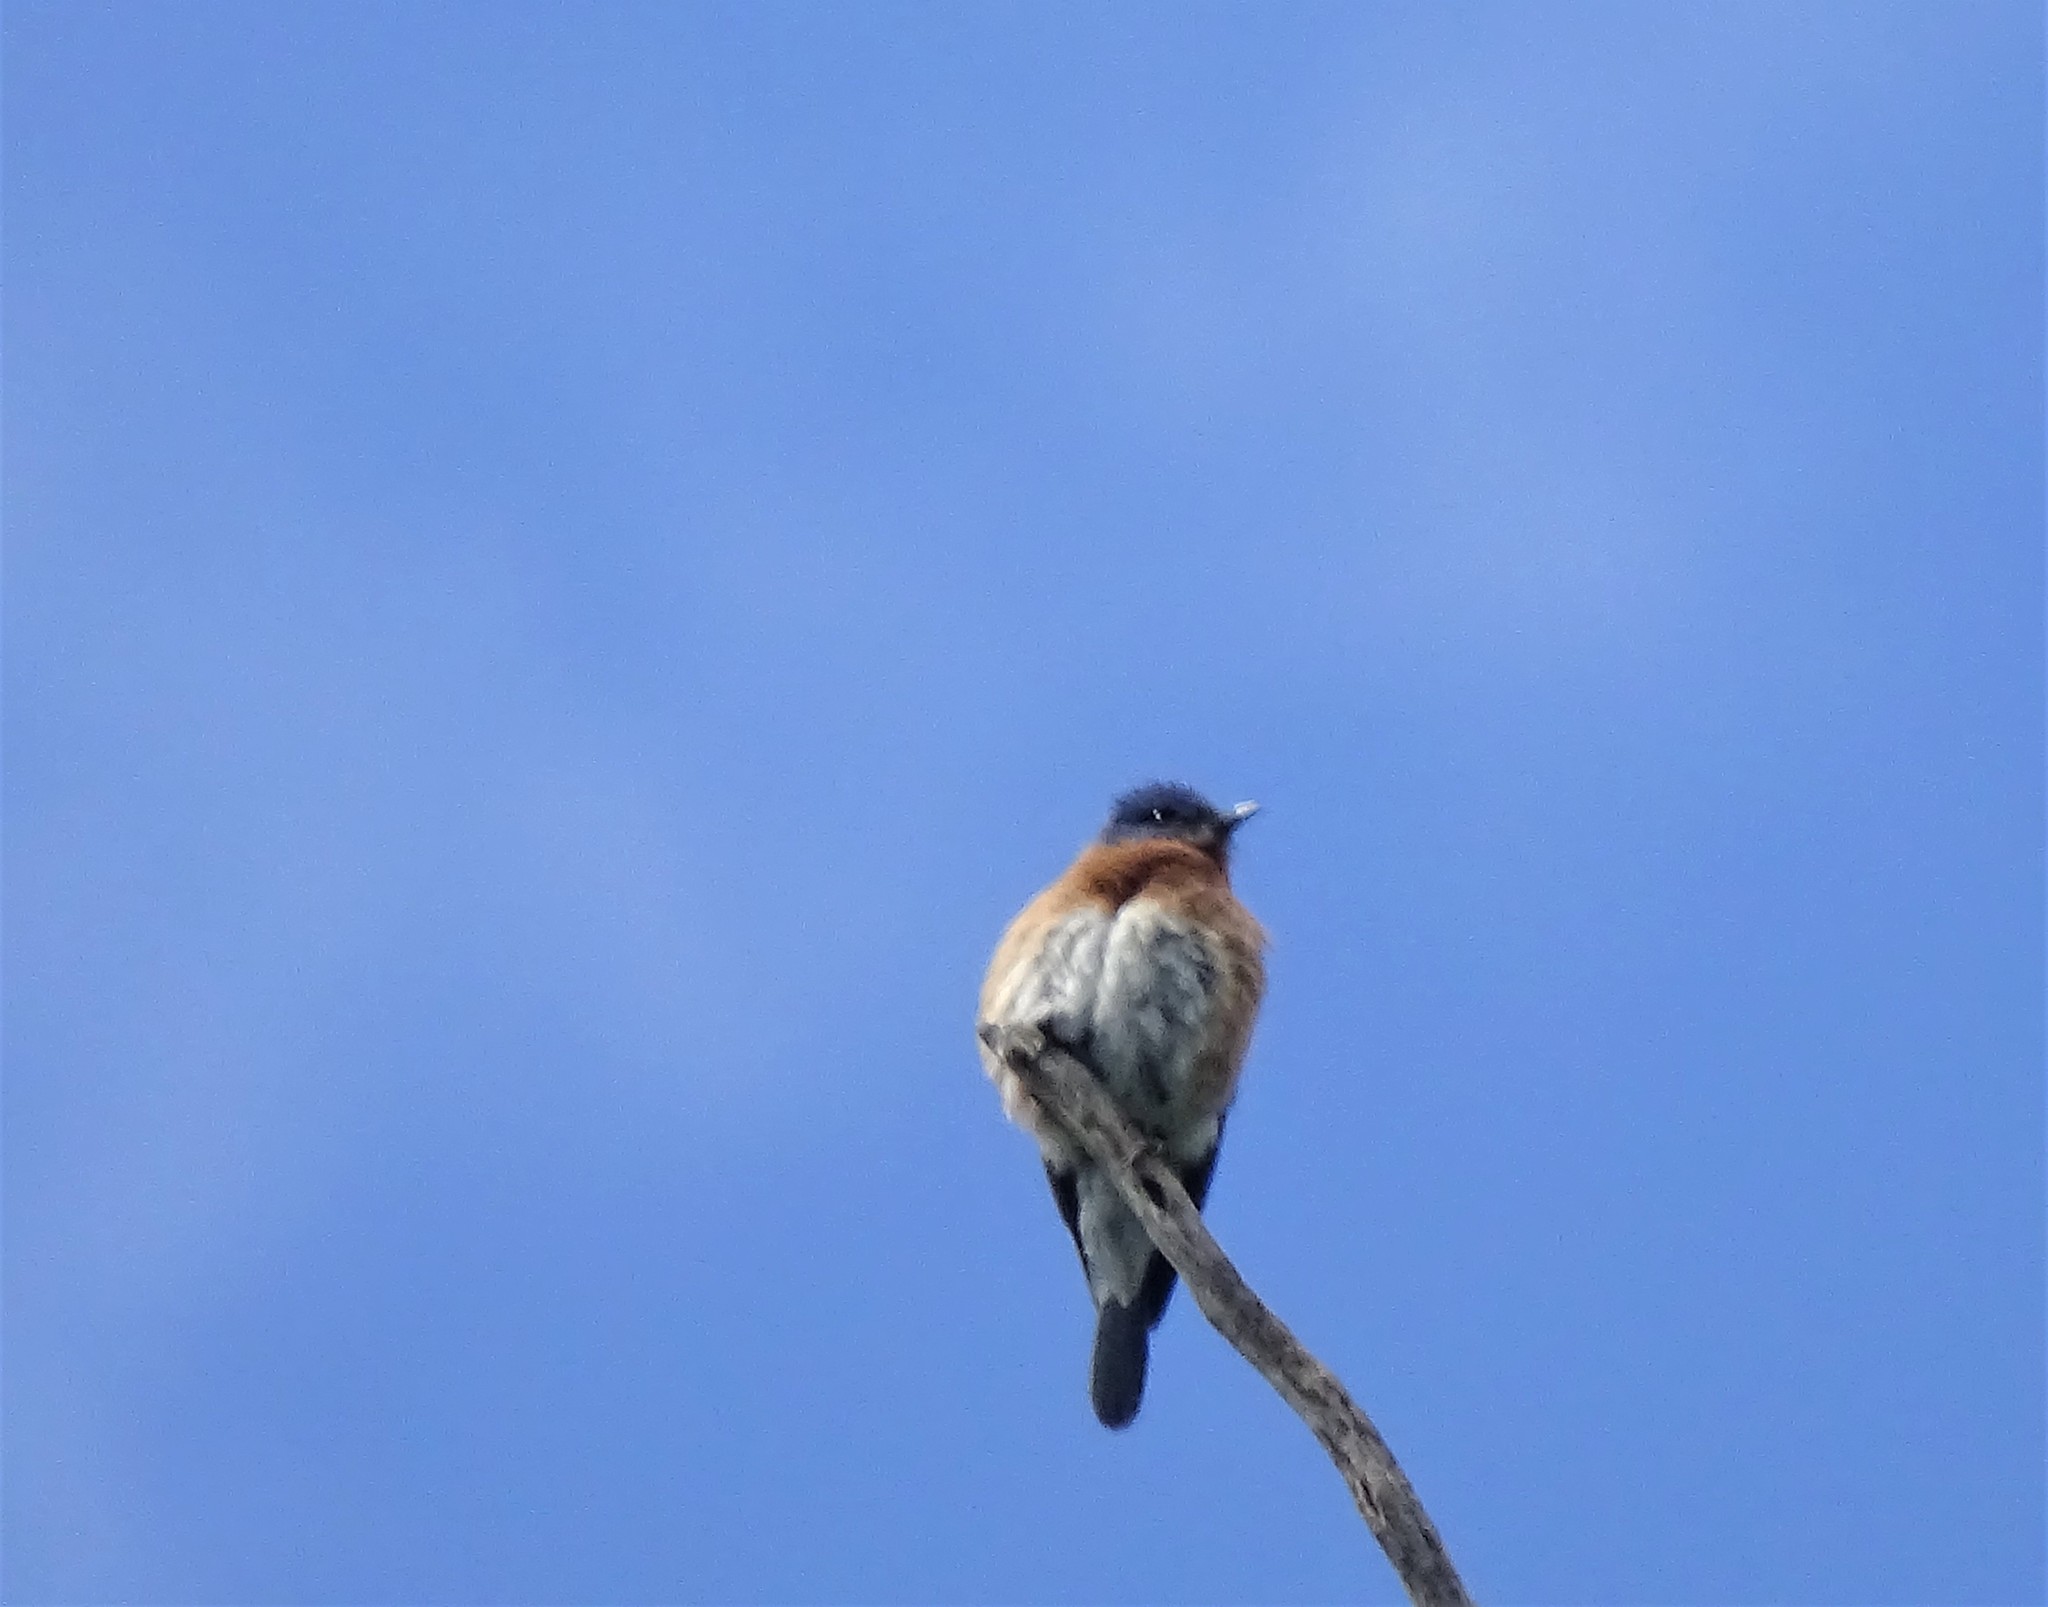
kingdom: Animalia
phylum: Chordata
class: Aves
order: Passeriformes
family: Turdidae
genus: Sialia
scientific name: Sialia sialis
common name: Eastern bluebird
